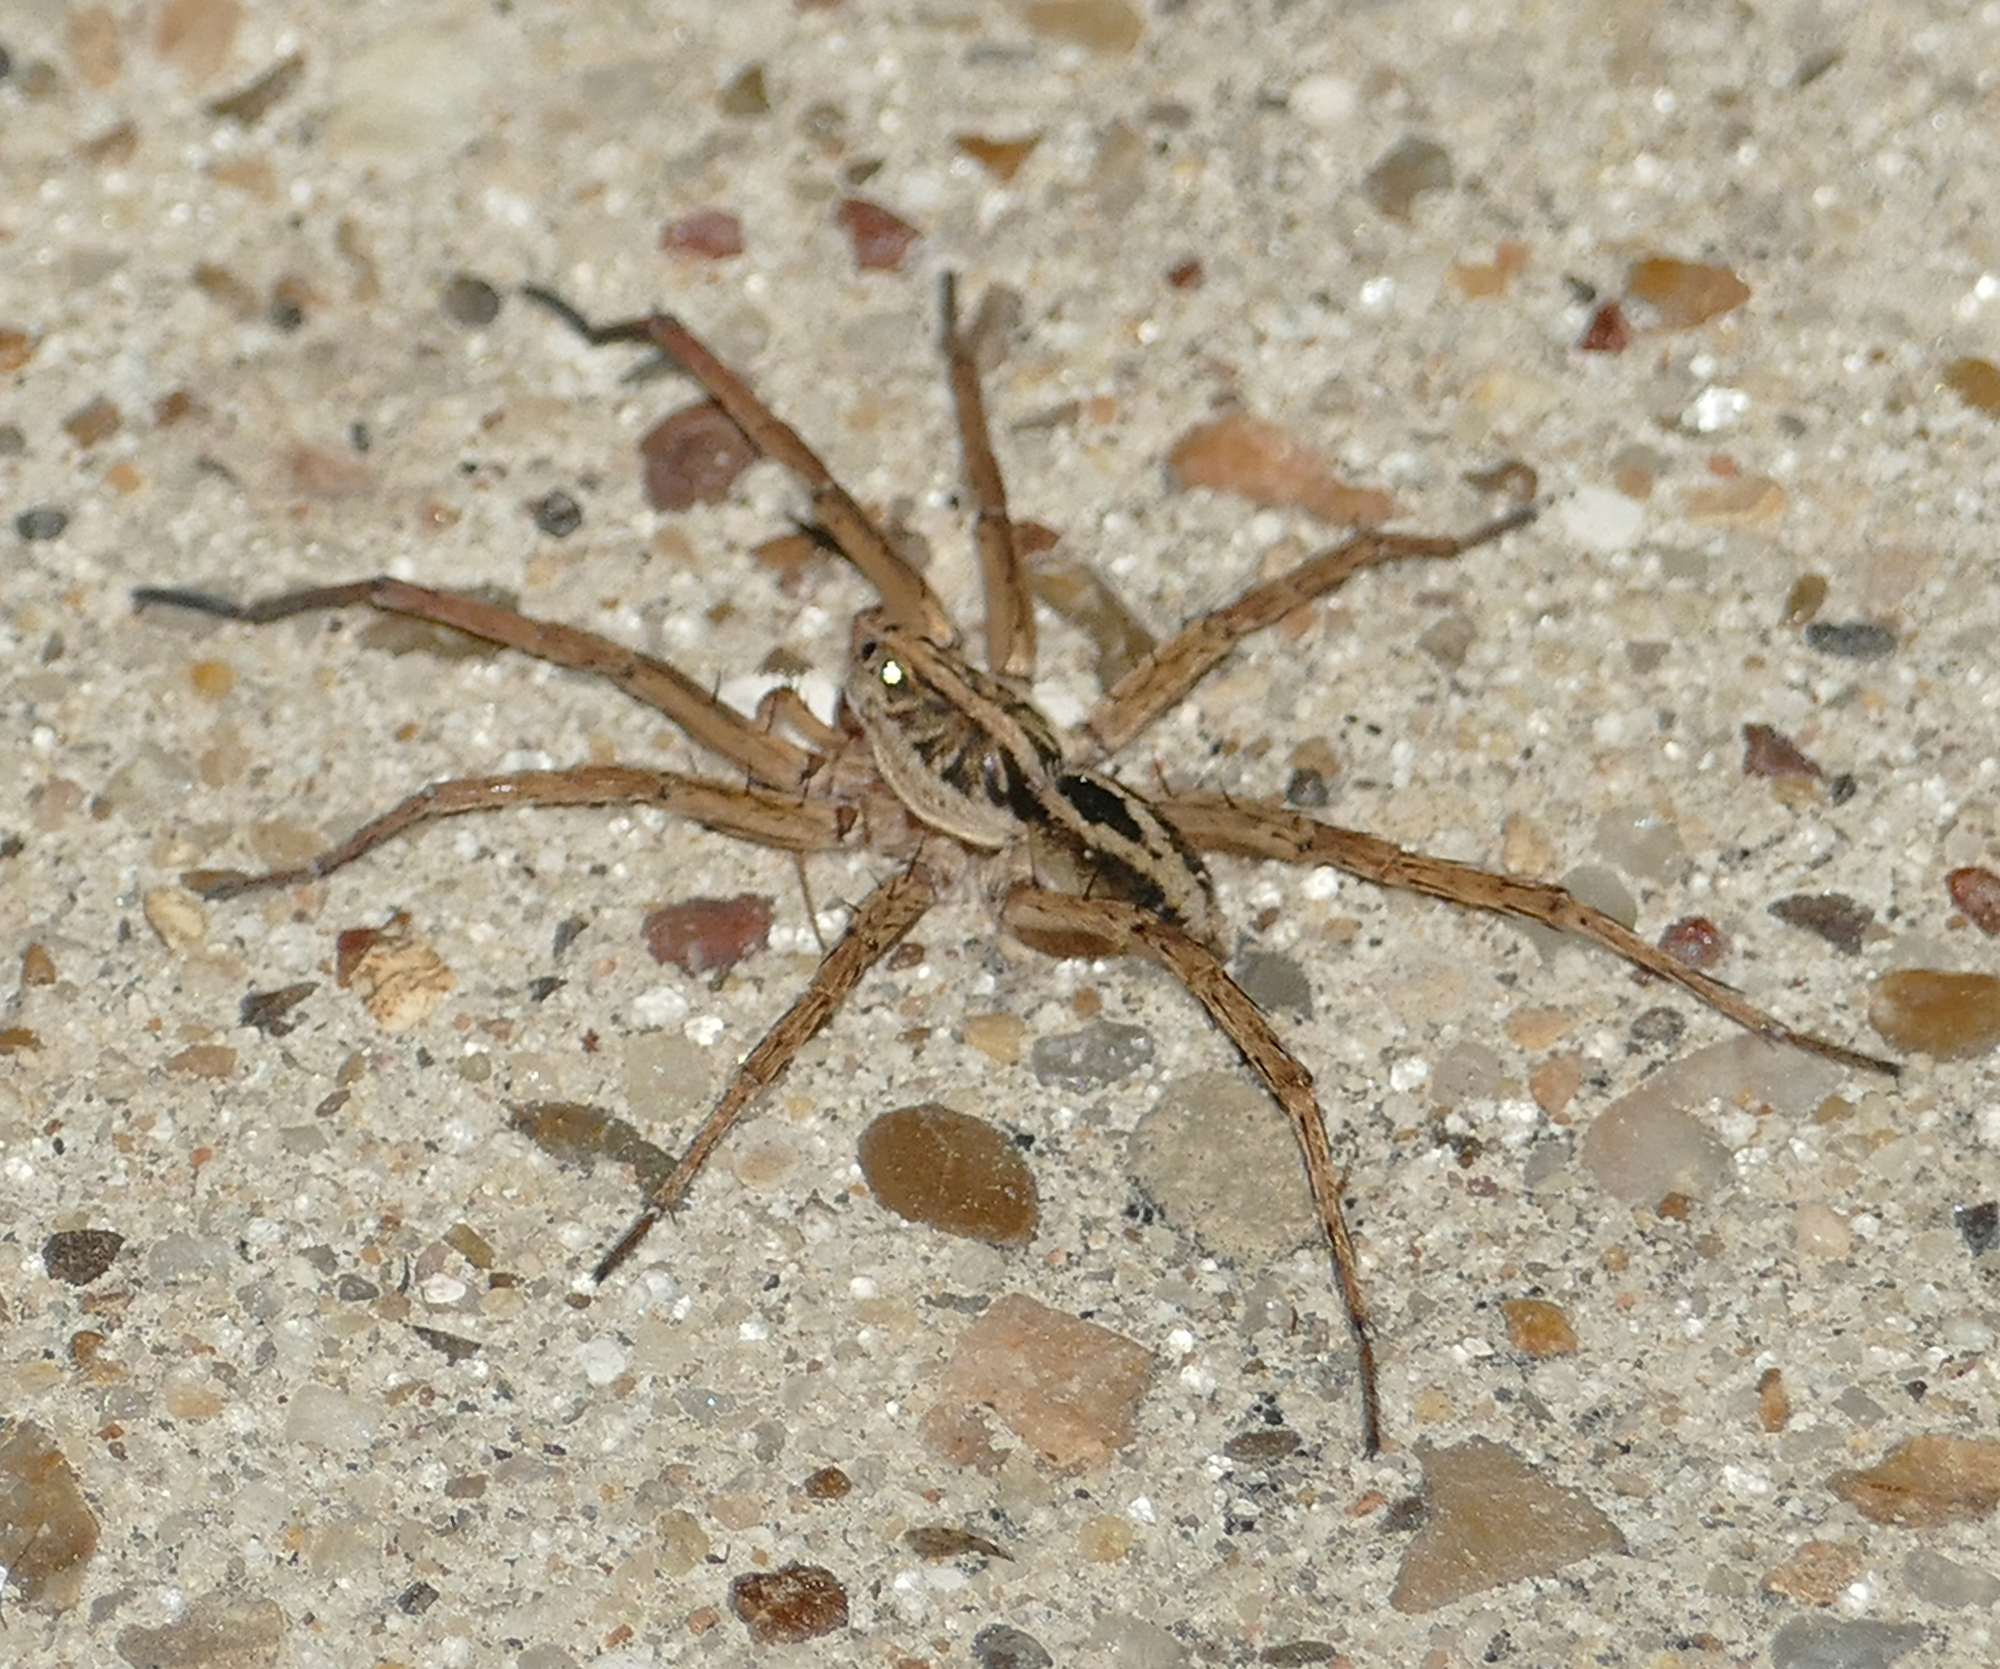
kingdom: Animalia
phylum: Arthropoda
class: Arachnida
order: Araneae
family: Lycosidae
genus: Tigrosa
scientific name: Tigrosa annexa
